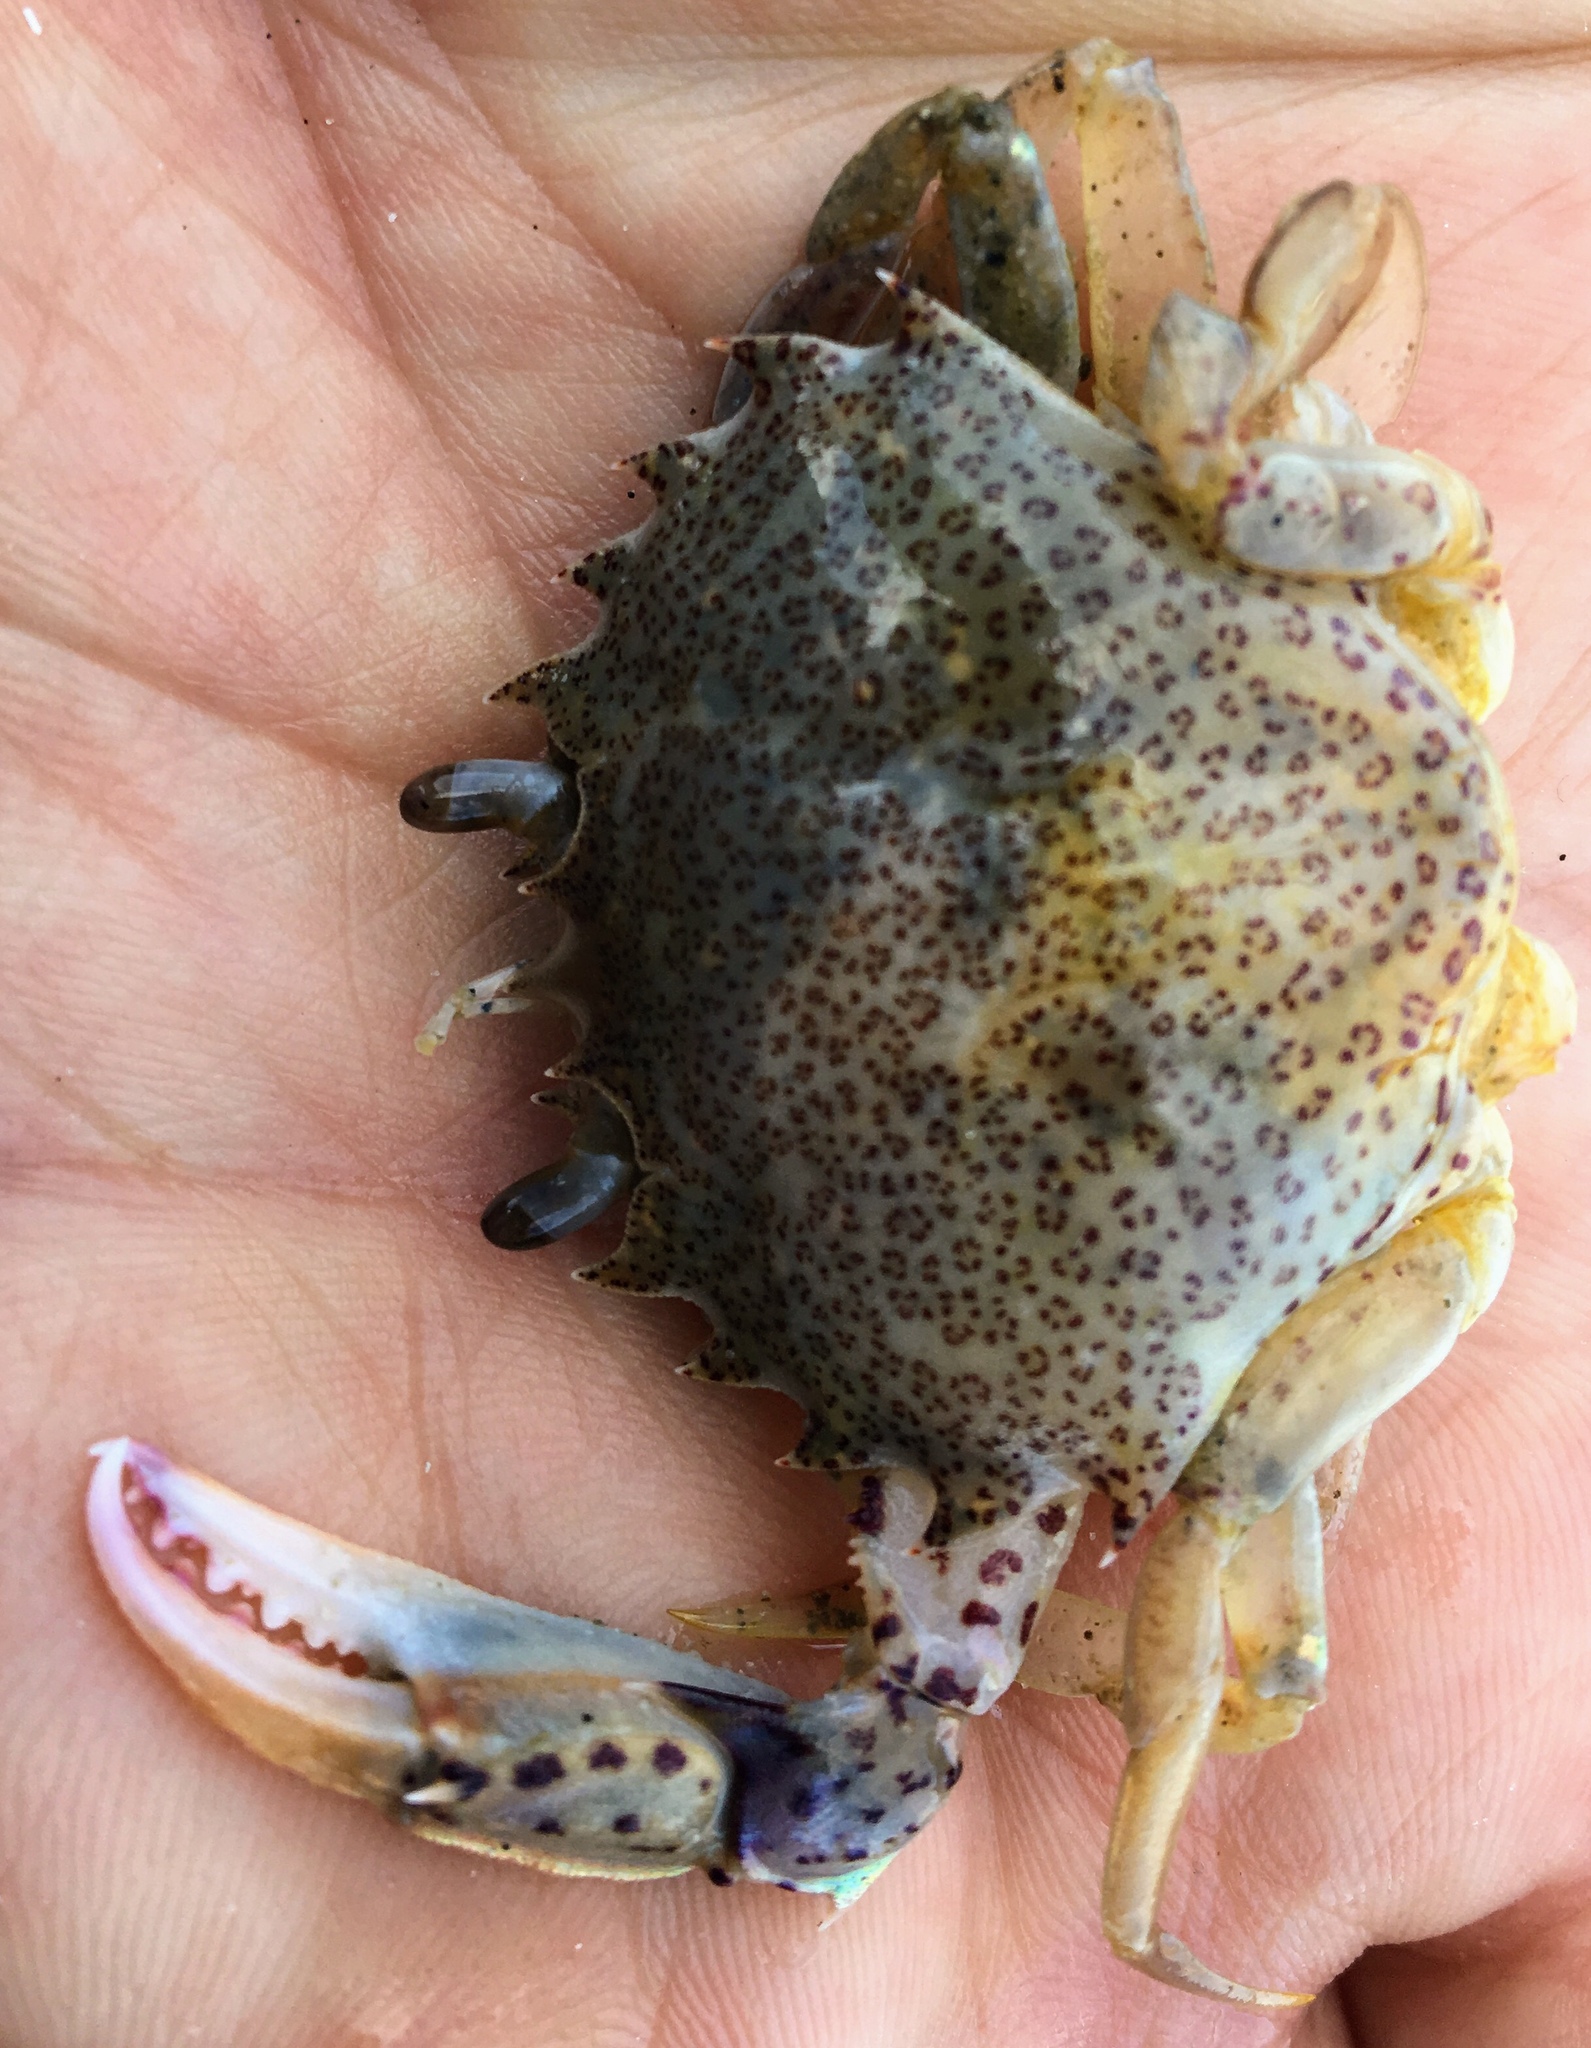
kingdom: Animalia
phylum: Arthropoda
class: Malacostraca
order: Decapoda
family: Ovalipidae
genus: Ovalipes
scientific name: Ovalipes ocellatus
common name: Lady crab
